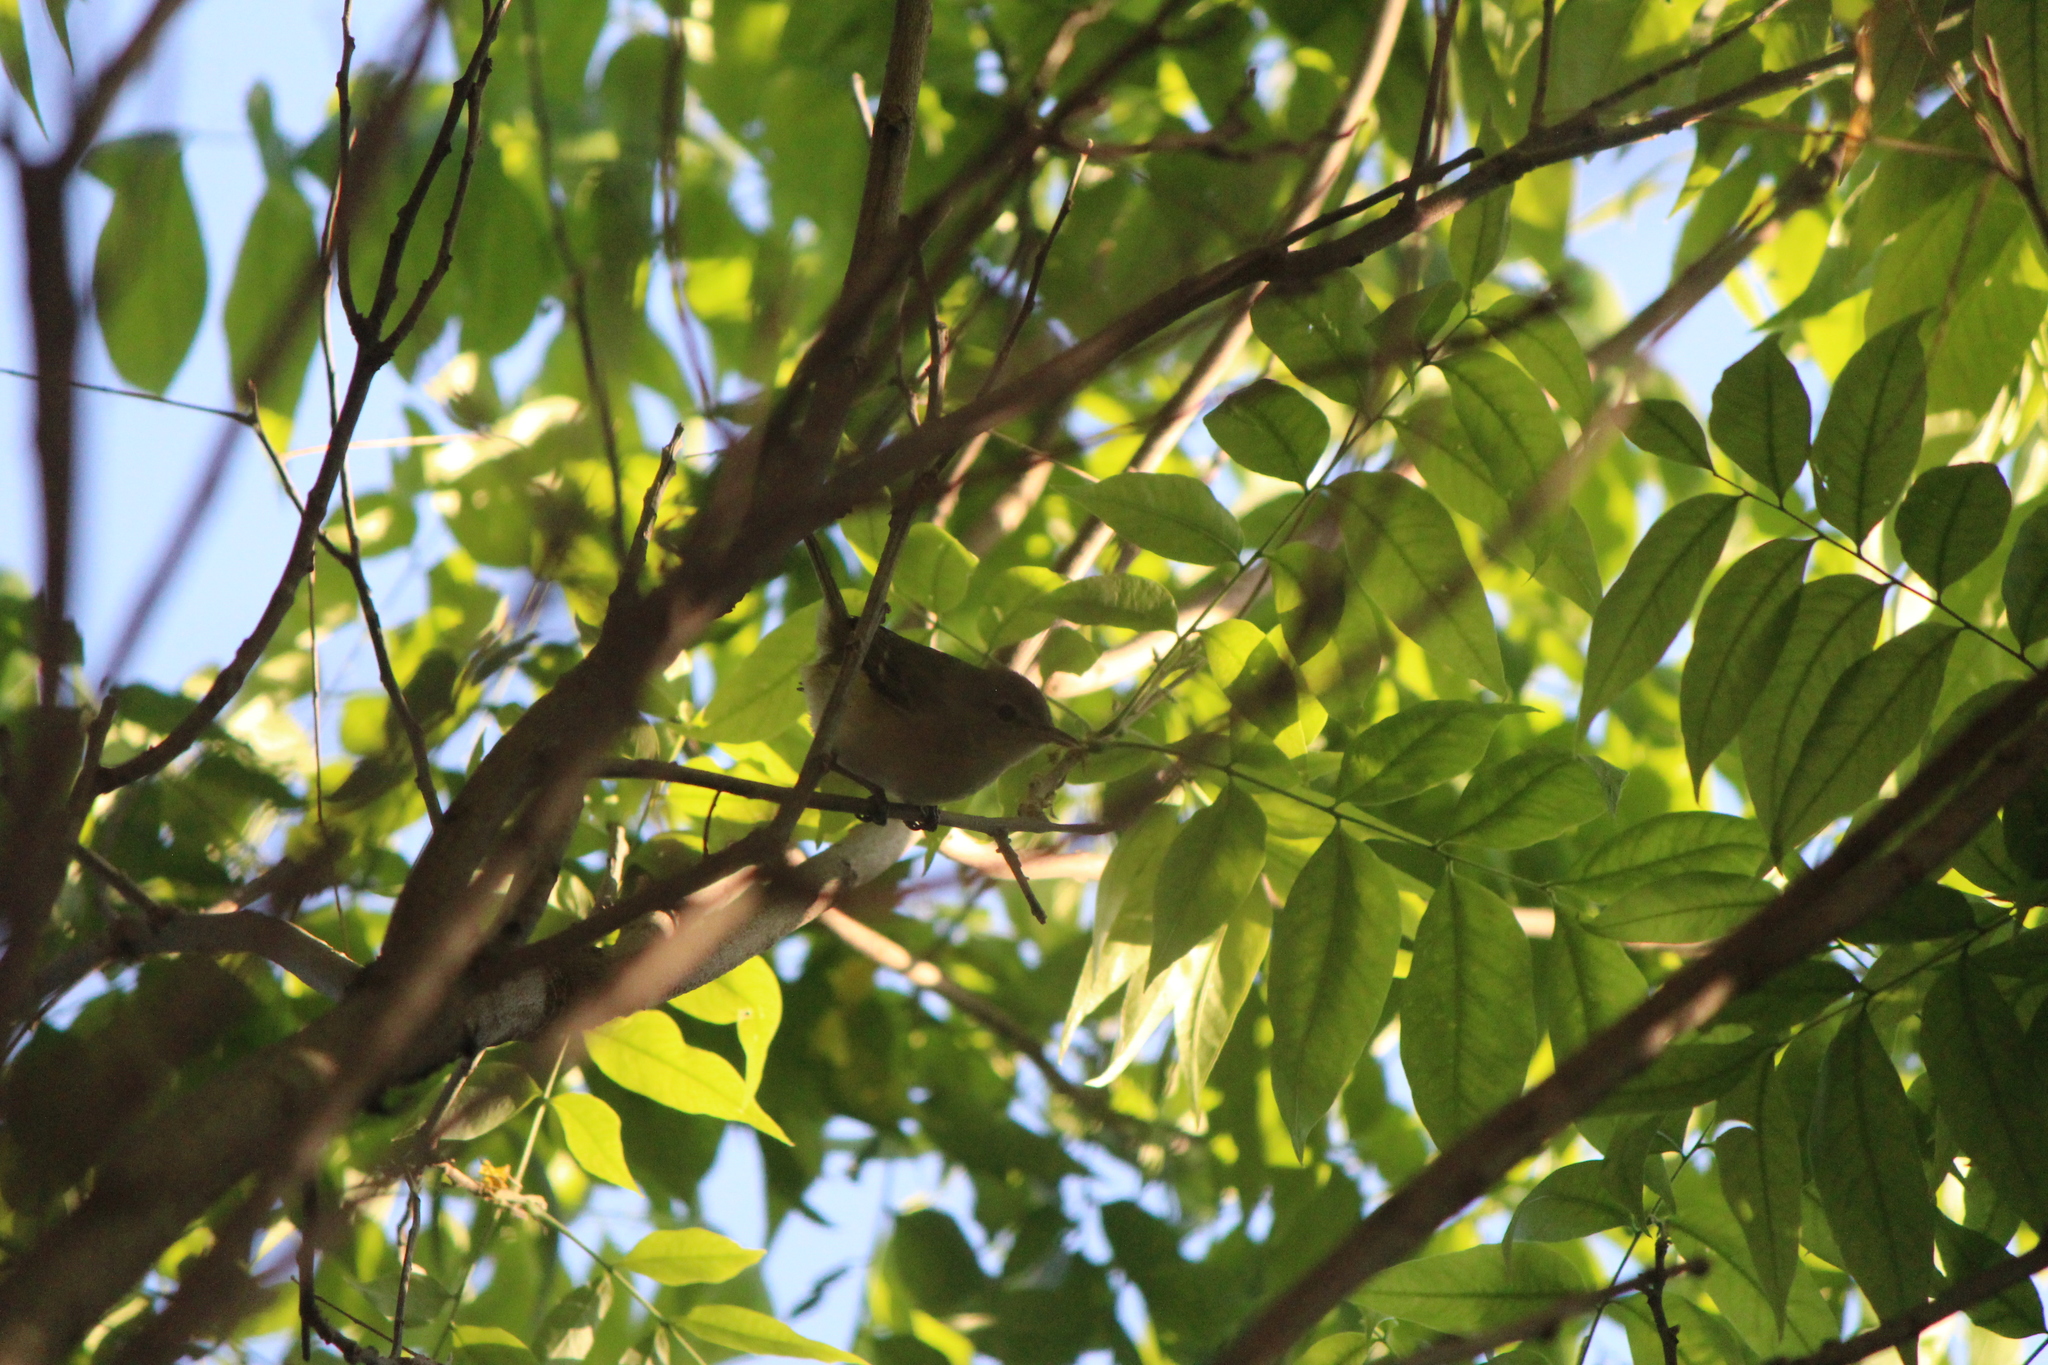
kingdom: Animalia
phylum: Chordata
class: Aves
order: Passeriformes
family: Vireonidae
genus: Vireo
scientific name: Vireo gilvus
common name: Warbling vireo
